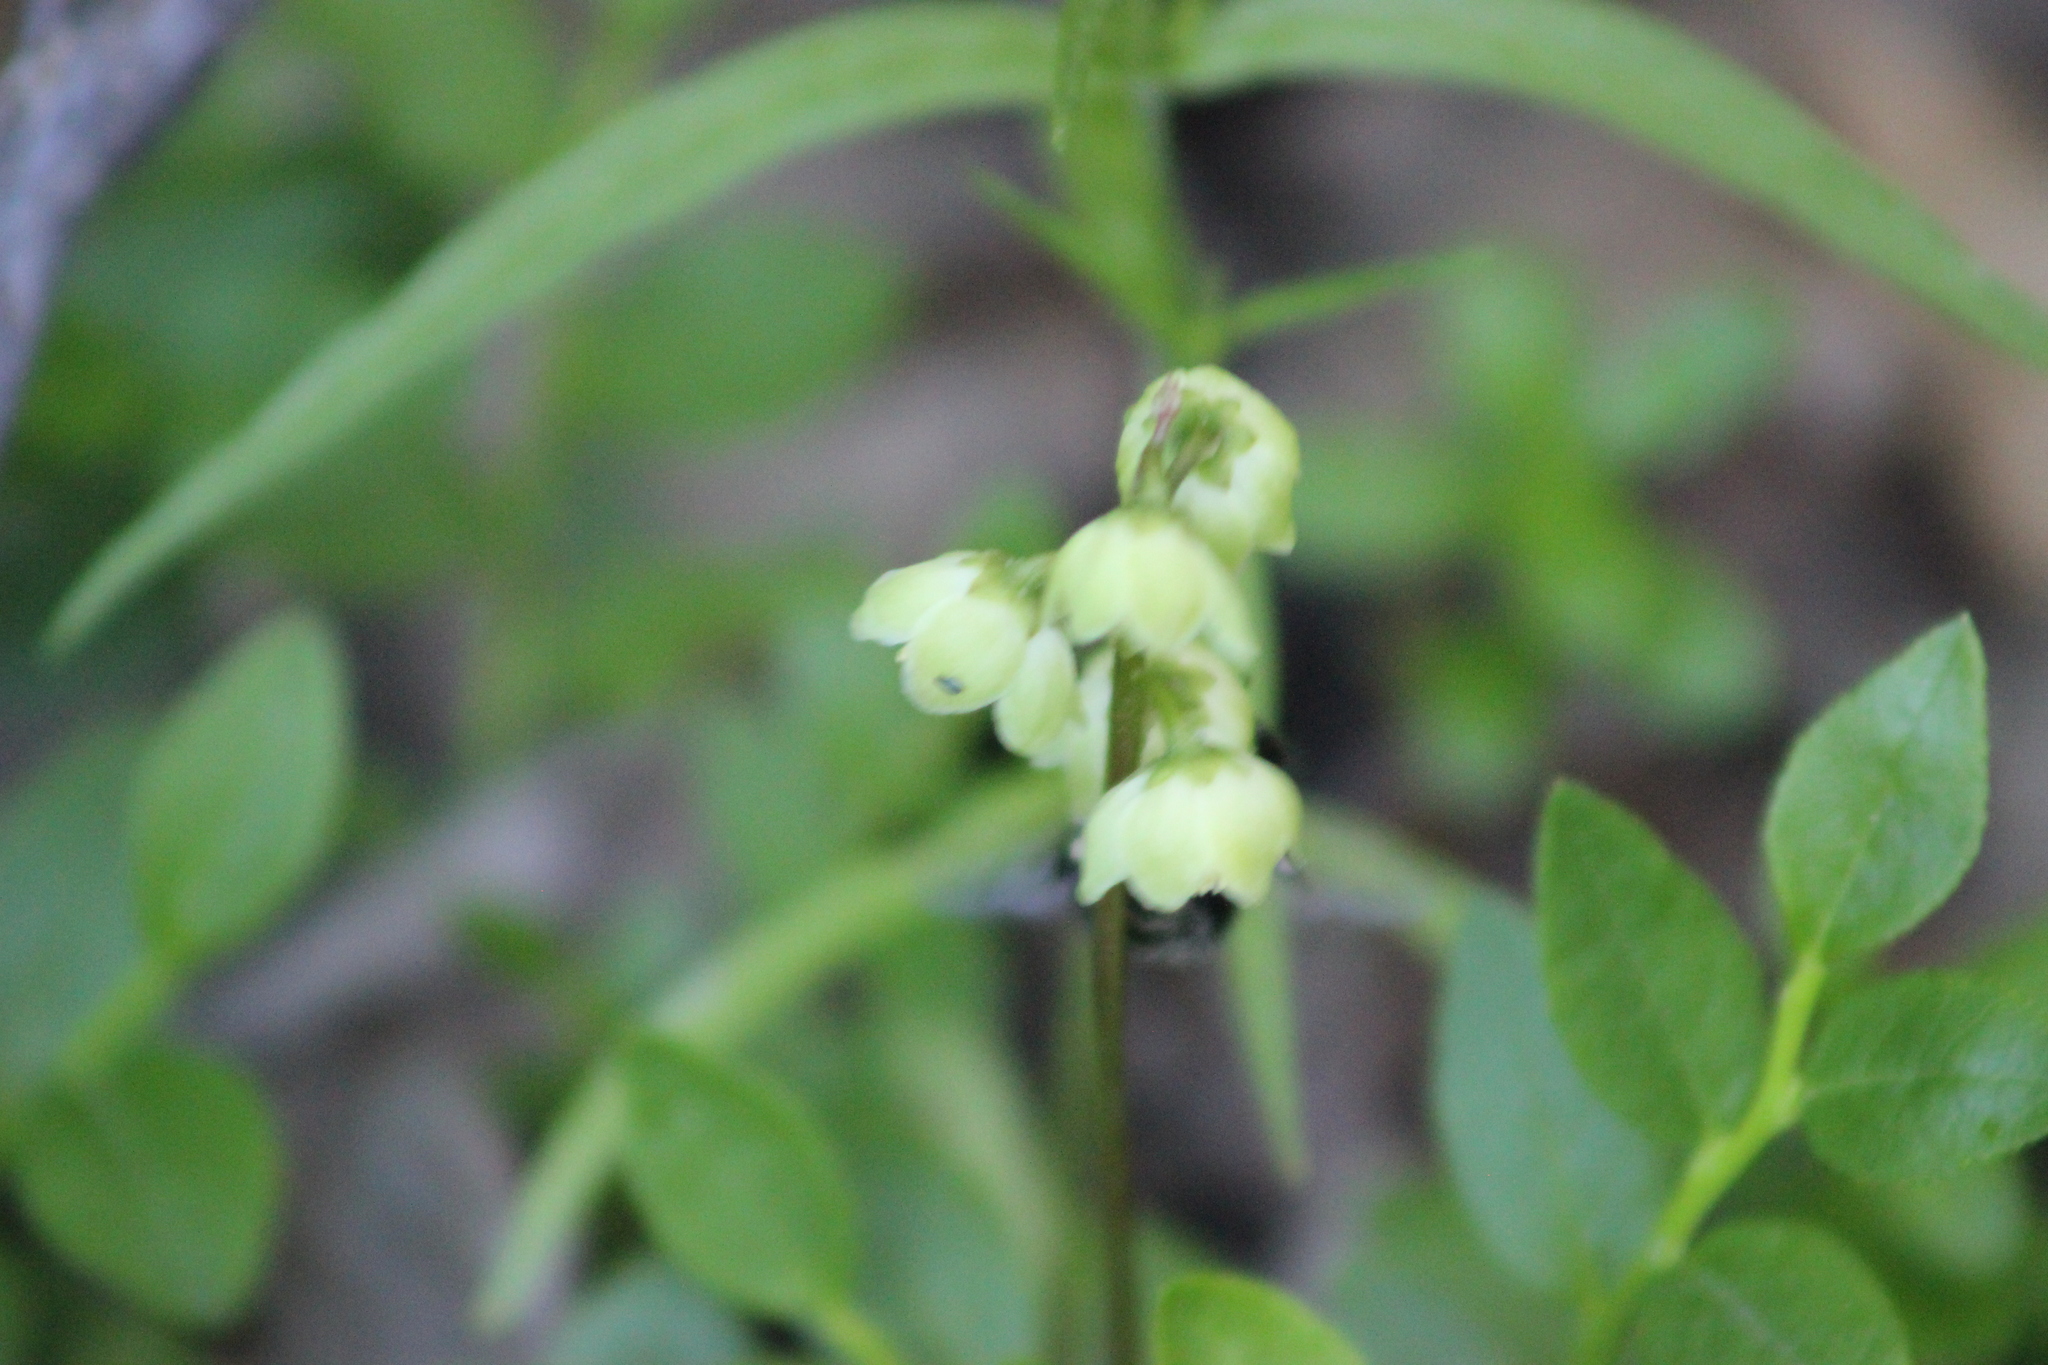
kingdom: Plantae
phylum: Tracheophyta
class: Magnoliopsida
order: Ericales
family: Ericaceae
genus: Pyrola
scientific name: Pyrola chlorantha
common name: Green wintergreen
